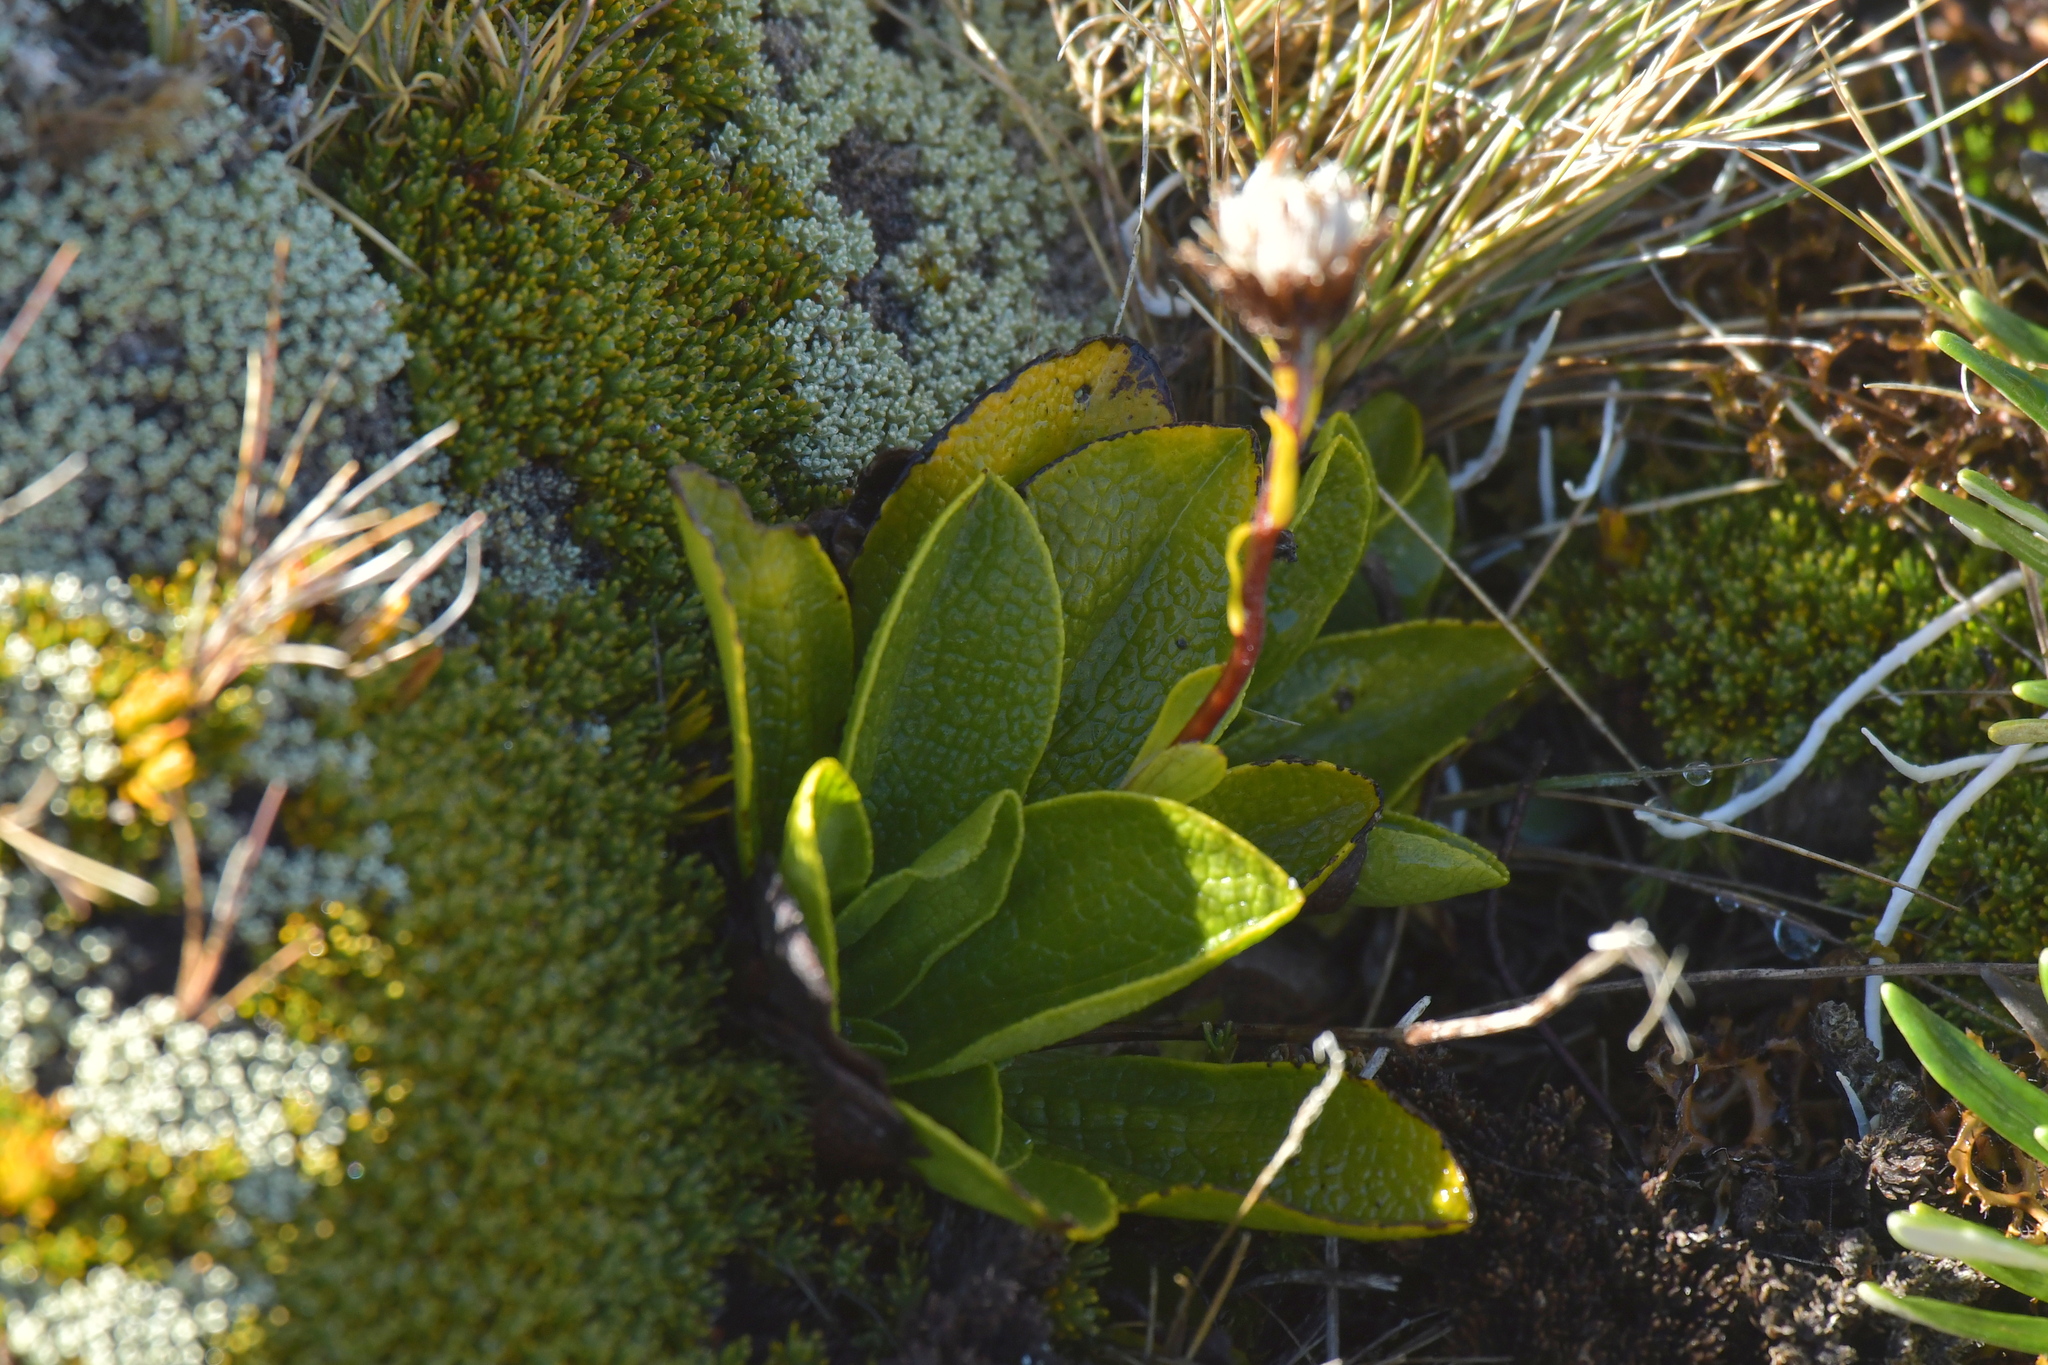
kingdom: Plantae
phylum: Tracheophyta
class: Magnoliopsida
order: Asterales
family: Asteraceae
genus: Brachyglottis
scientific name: Brachyglottis bellidioides
